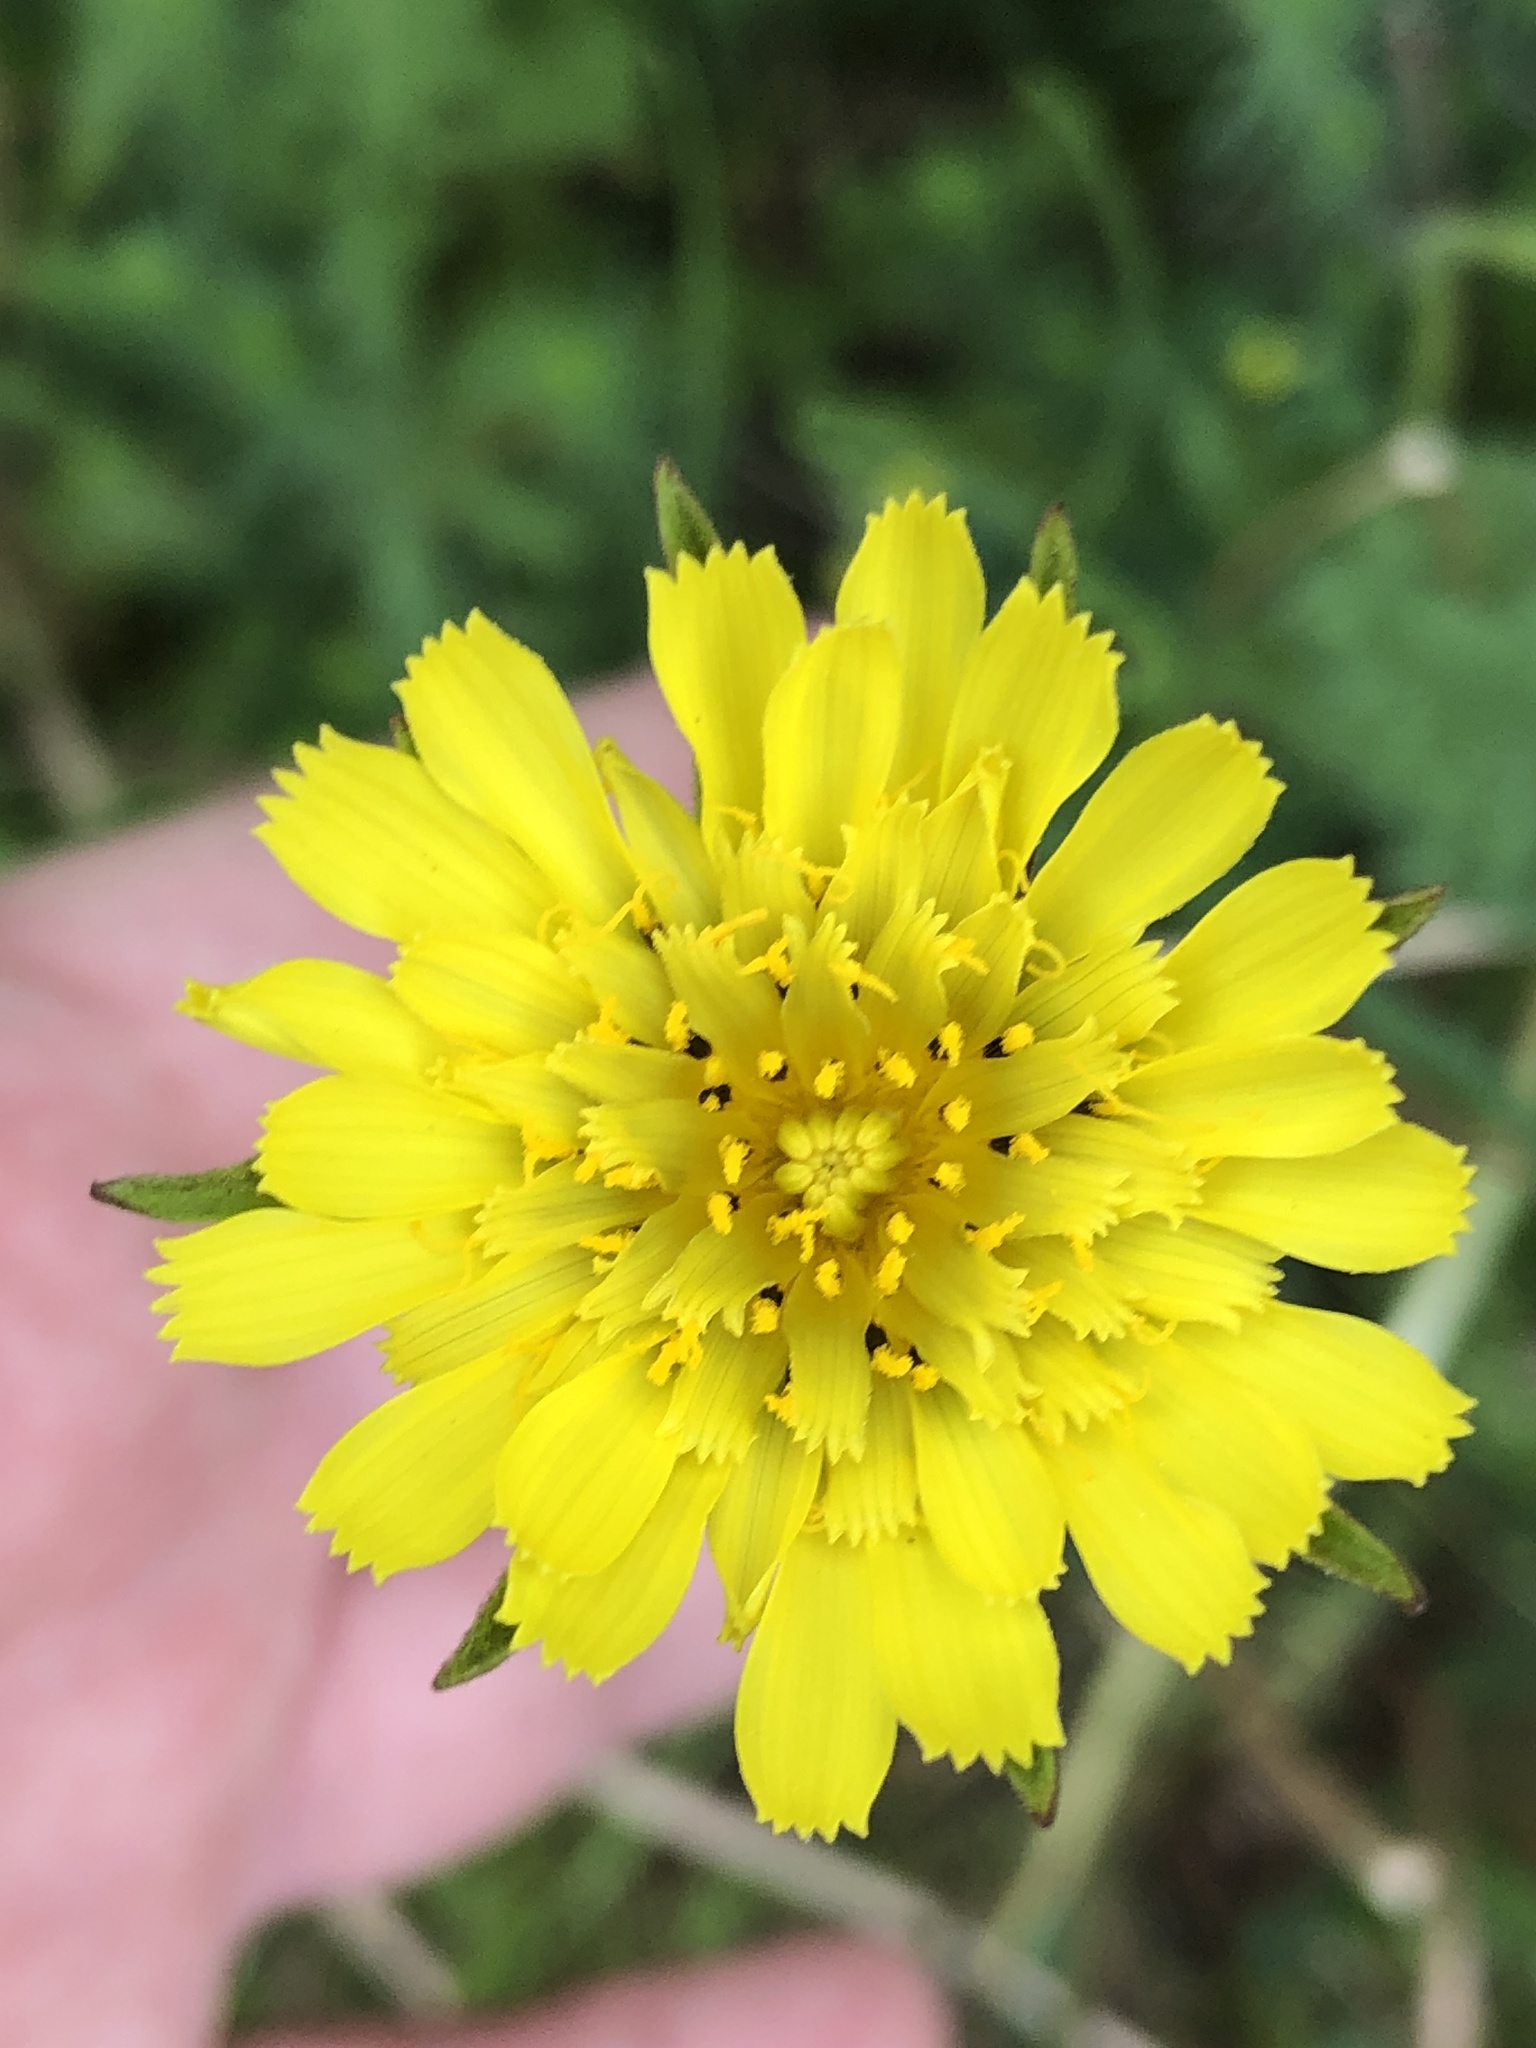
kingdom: Plantae
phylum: Tracheophyta
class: Magnoliopsida
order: Asterales
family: Asteraceae
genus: Tragopogon
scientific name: Tragopogon pratensis
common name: Goat's-beard
